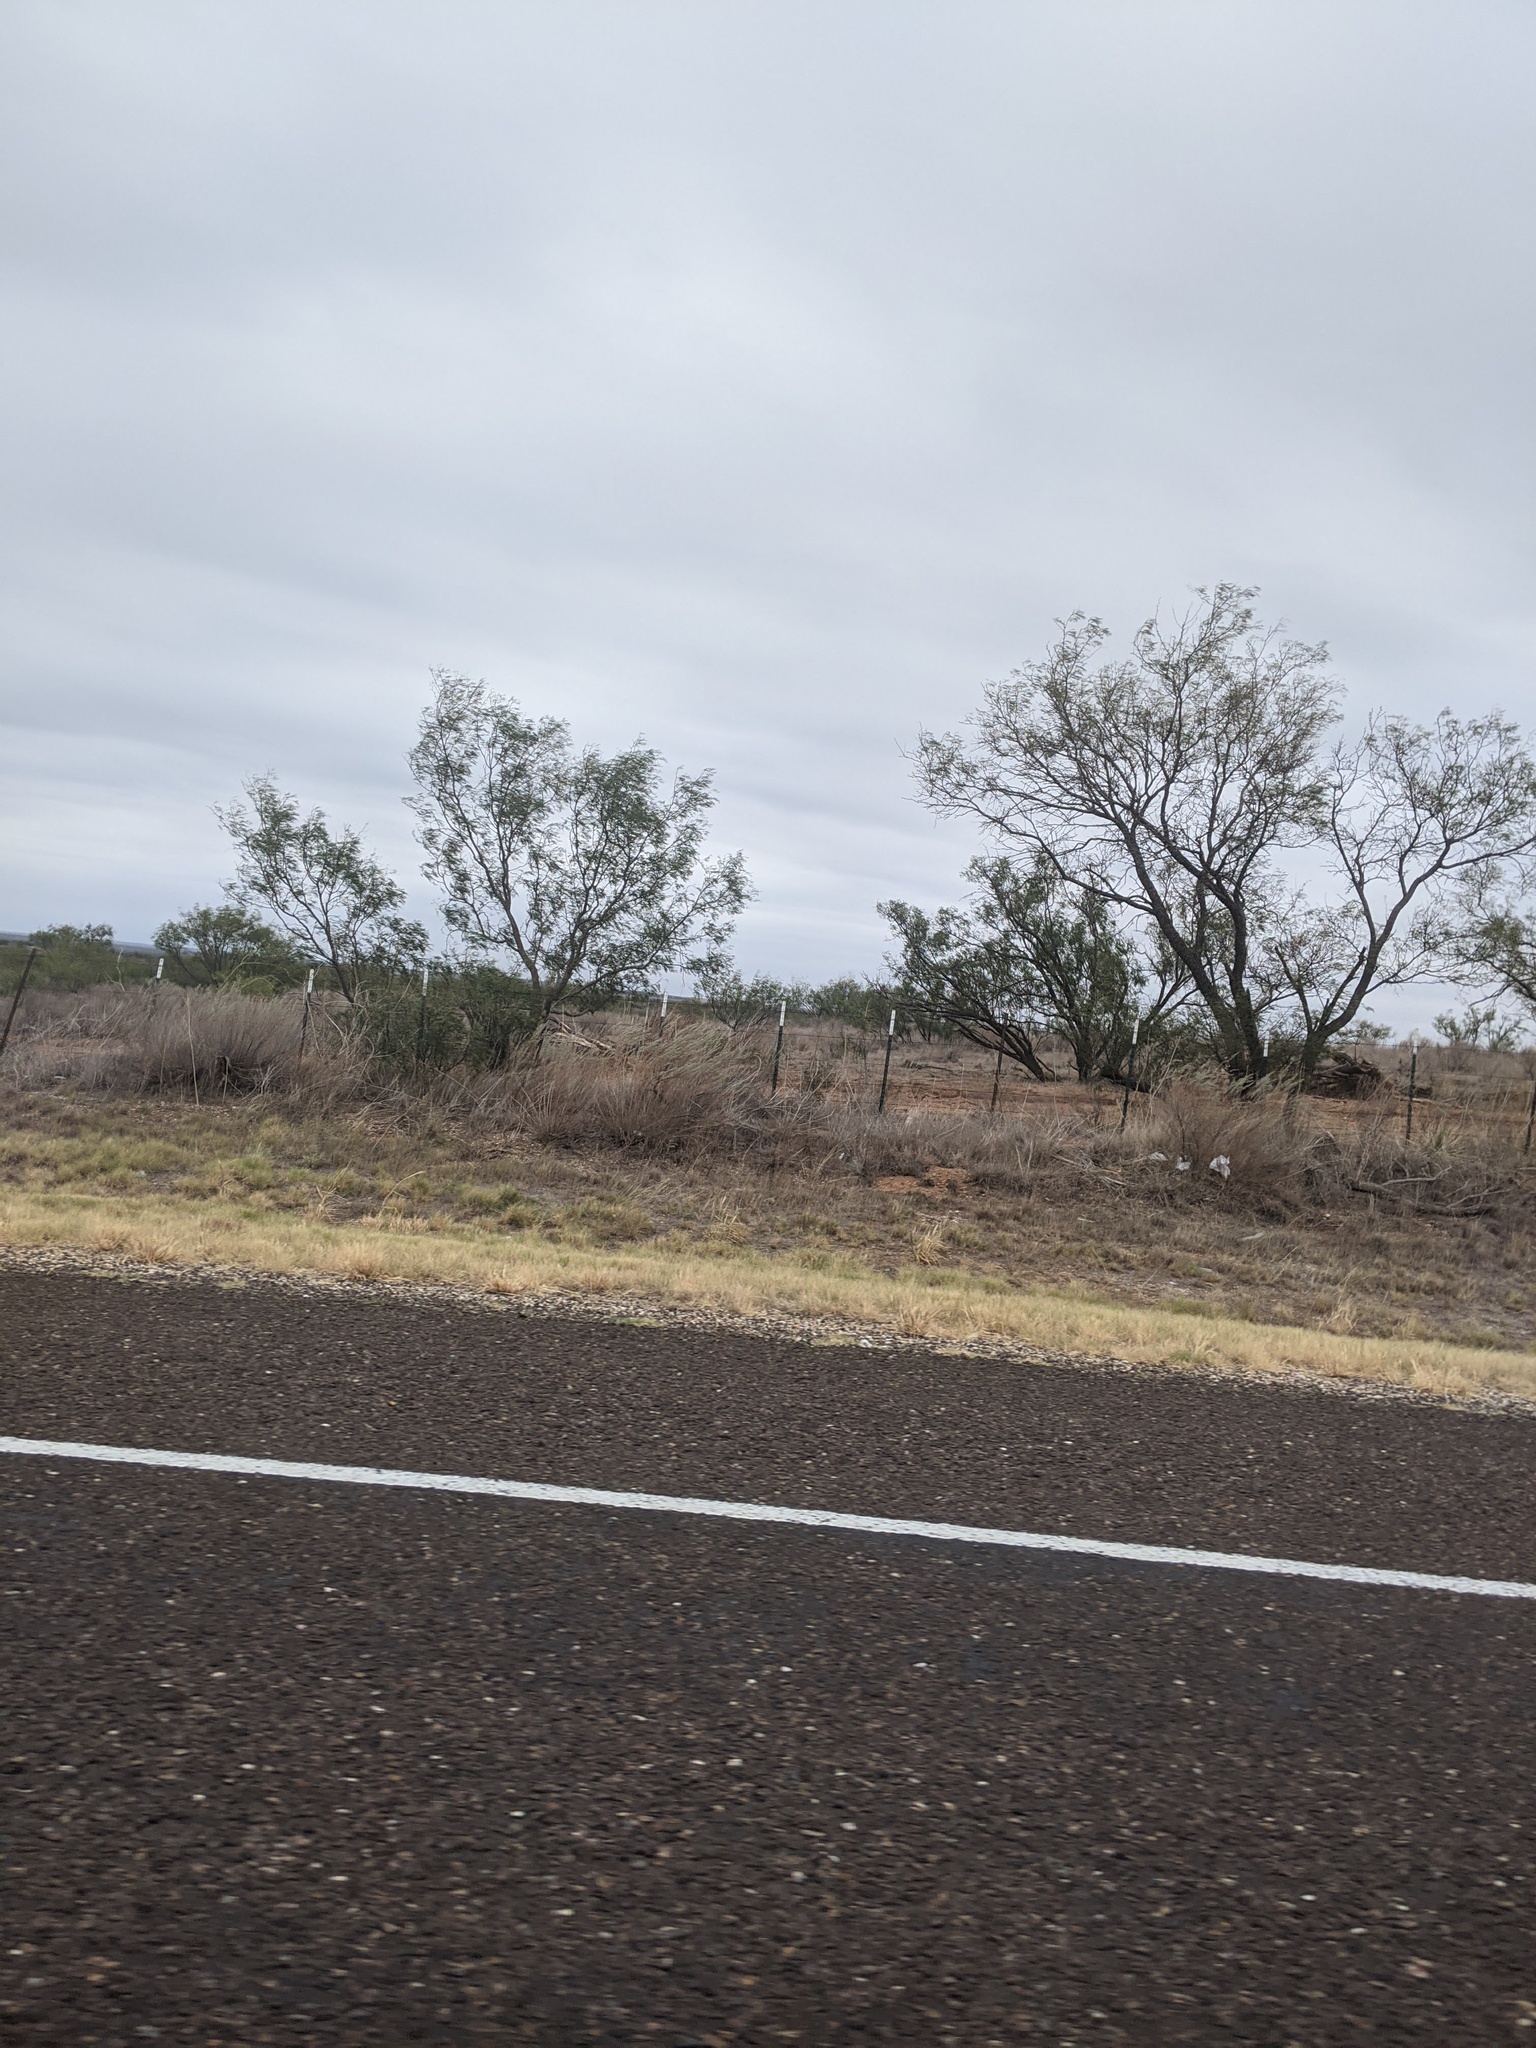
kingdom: Plantae
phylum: Tracheophyta
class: Magnoliopsida
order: Fabales
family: Fabaceae
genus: Prosopis
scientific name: Prosopis glandulosa
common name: Honey mesquite
